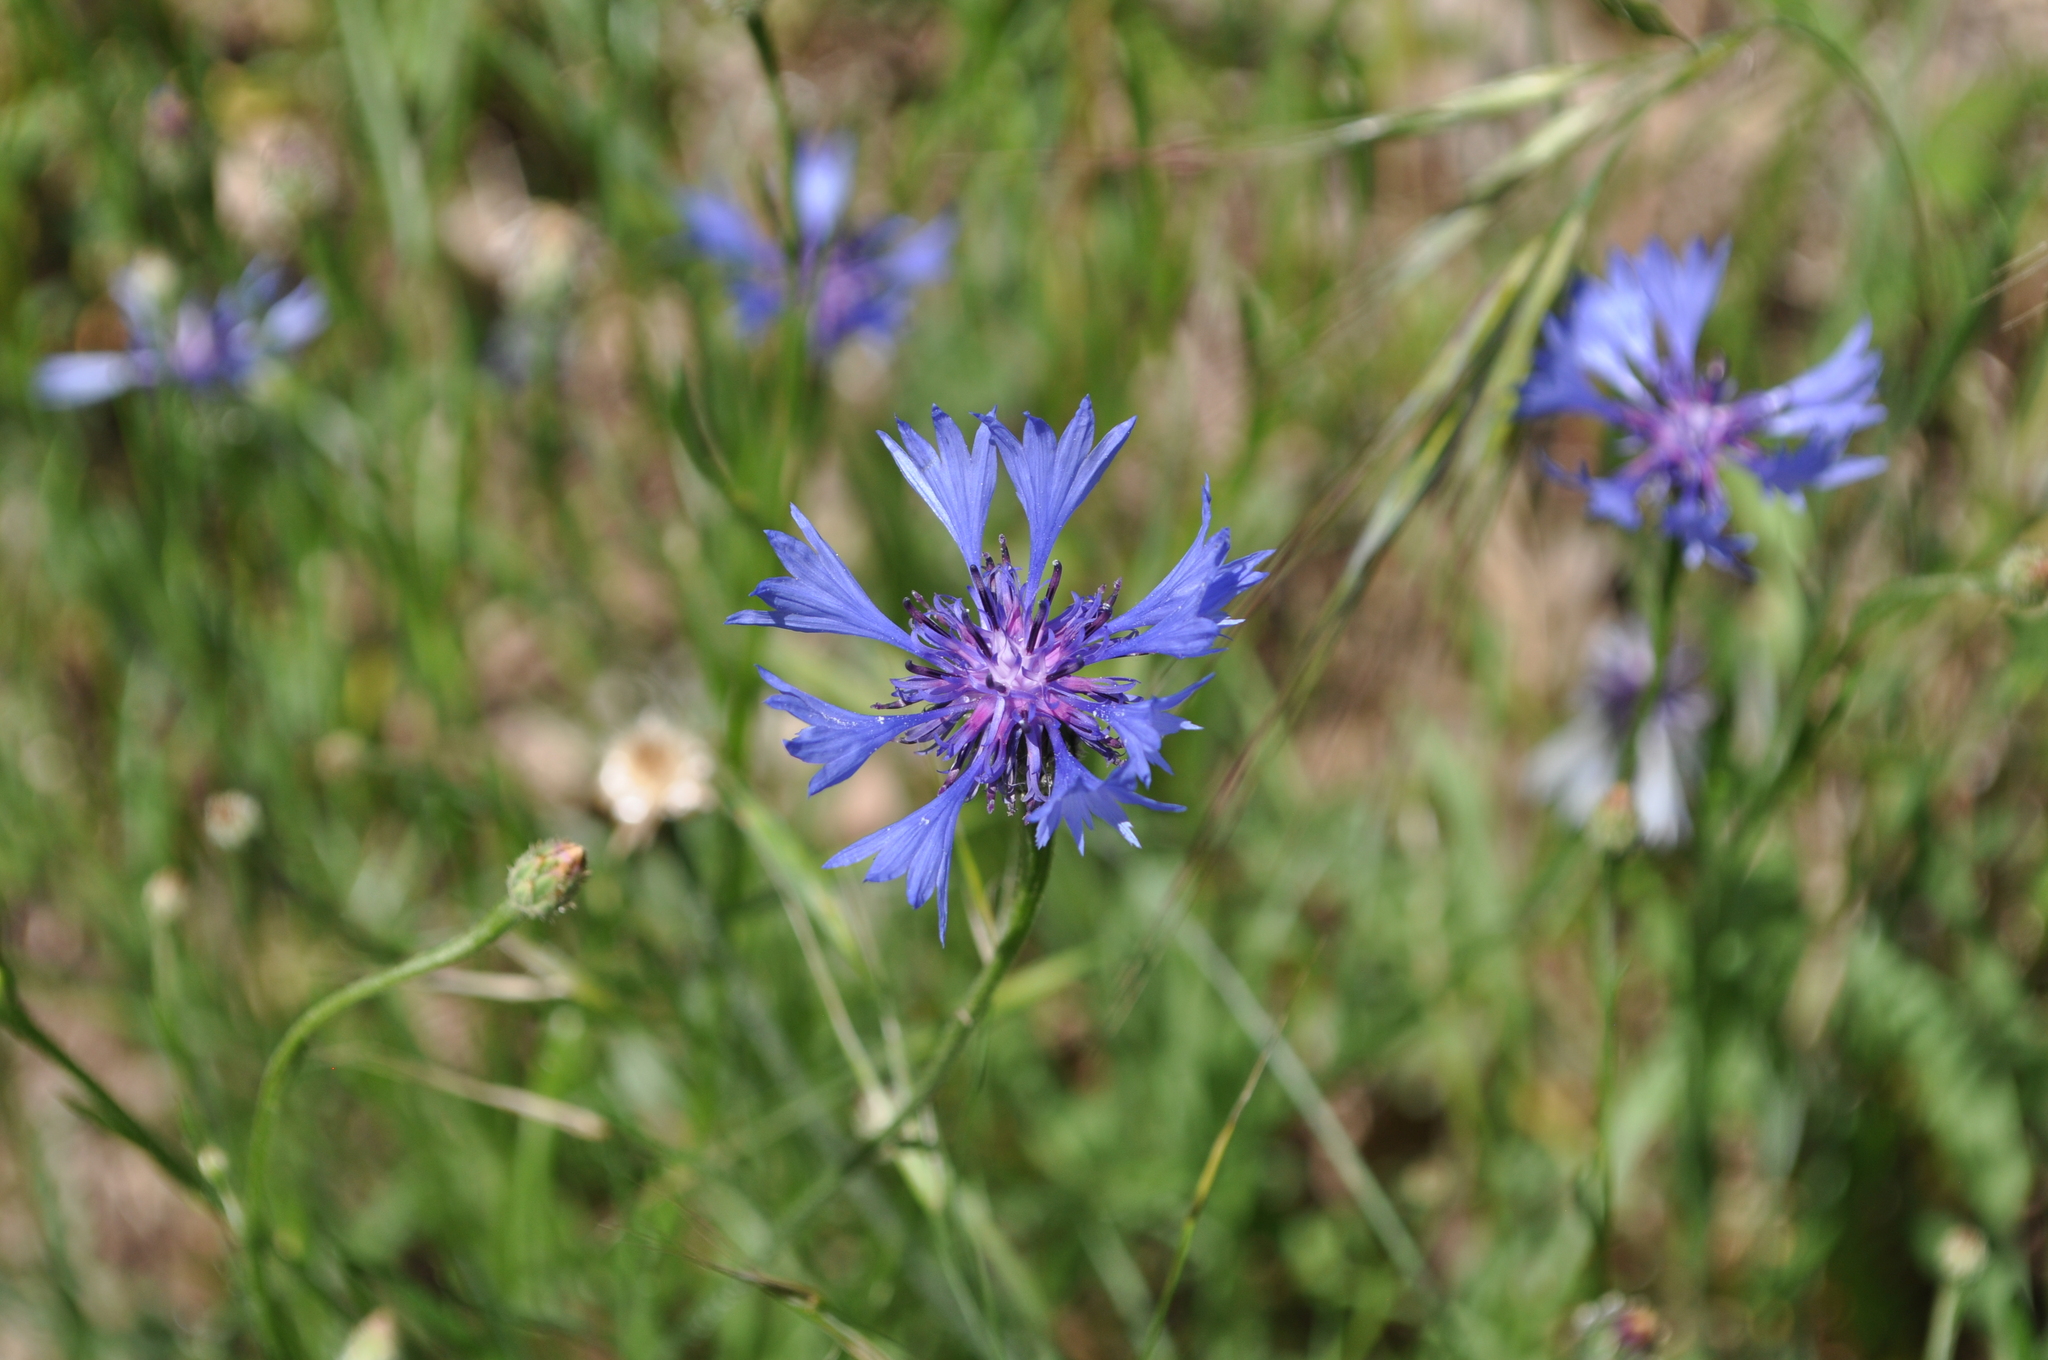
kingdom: Plantae
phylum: Tracheophyta
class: Magnoliopsida
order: Asterales
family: Asteraceae
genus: Centaurea
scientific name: Centaurea cyanus
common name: Cornflower
